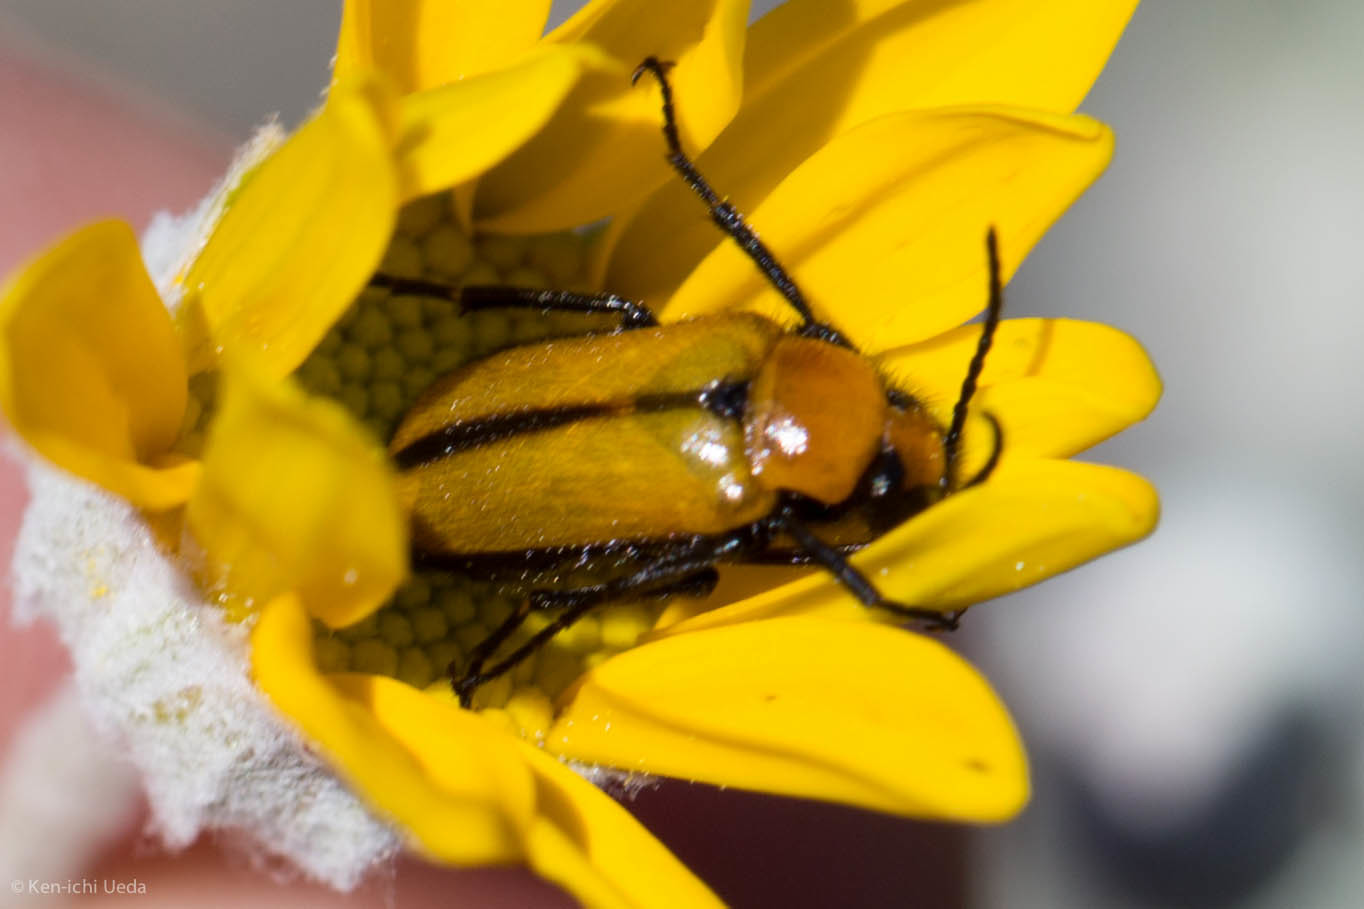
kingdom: Animalia
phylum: Arthropoda
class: Insecta
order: Coleoptera
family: Meloidae
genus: Nemognatha
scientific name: Nemognatha scutellaris
